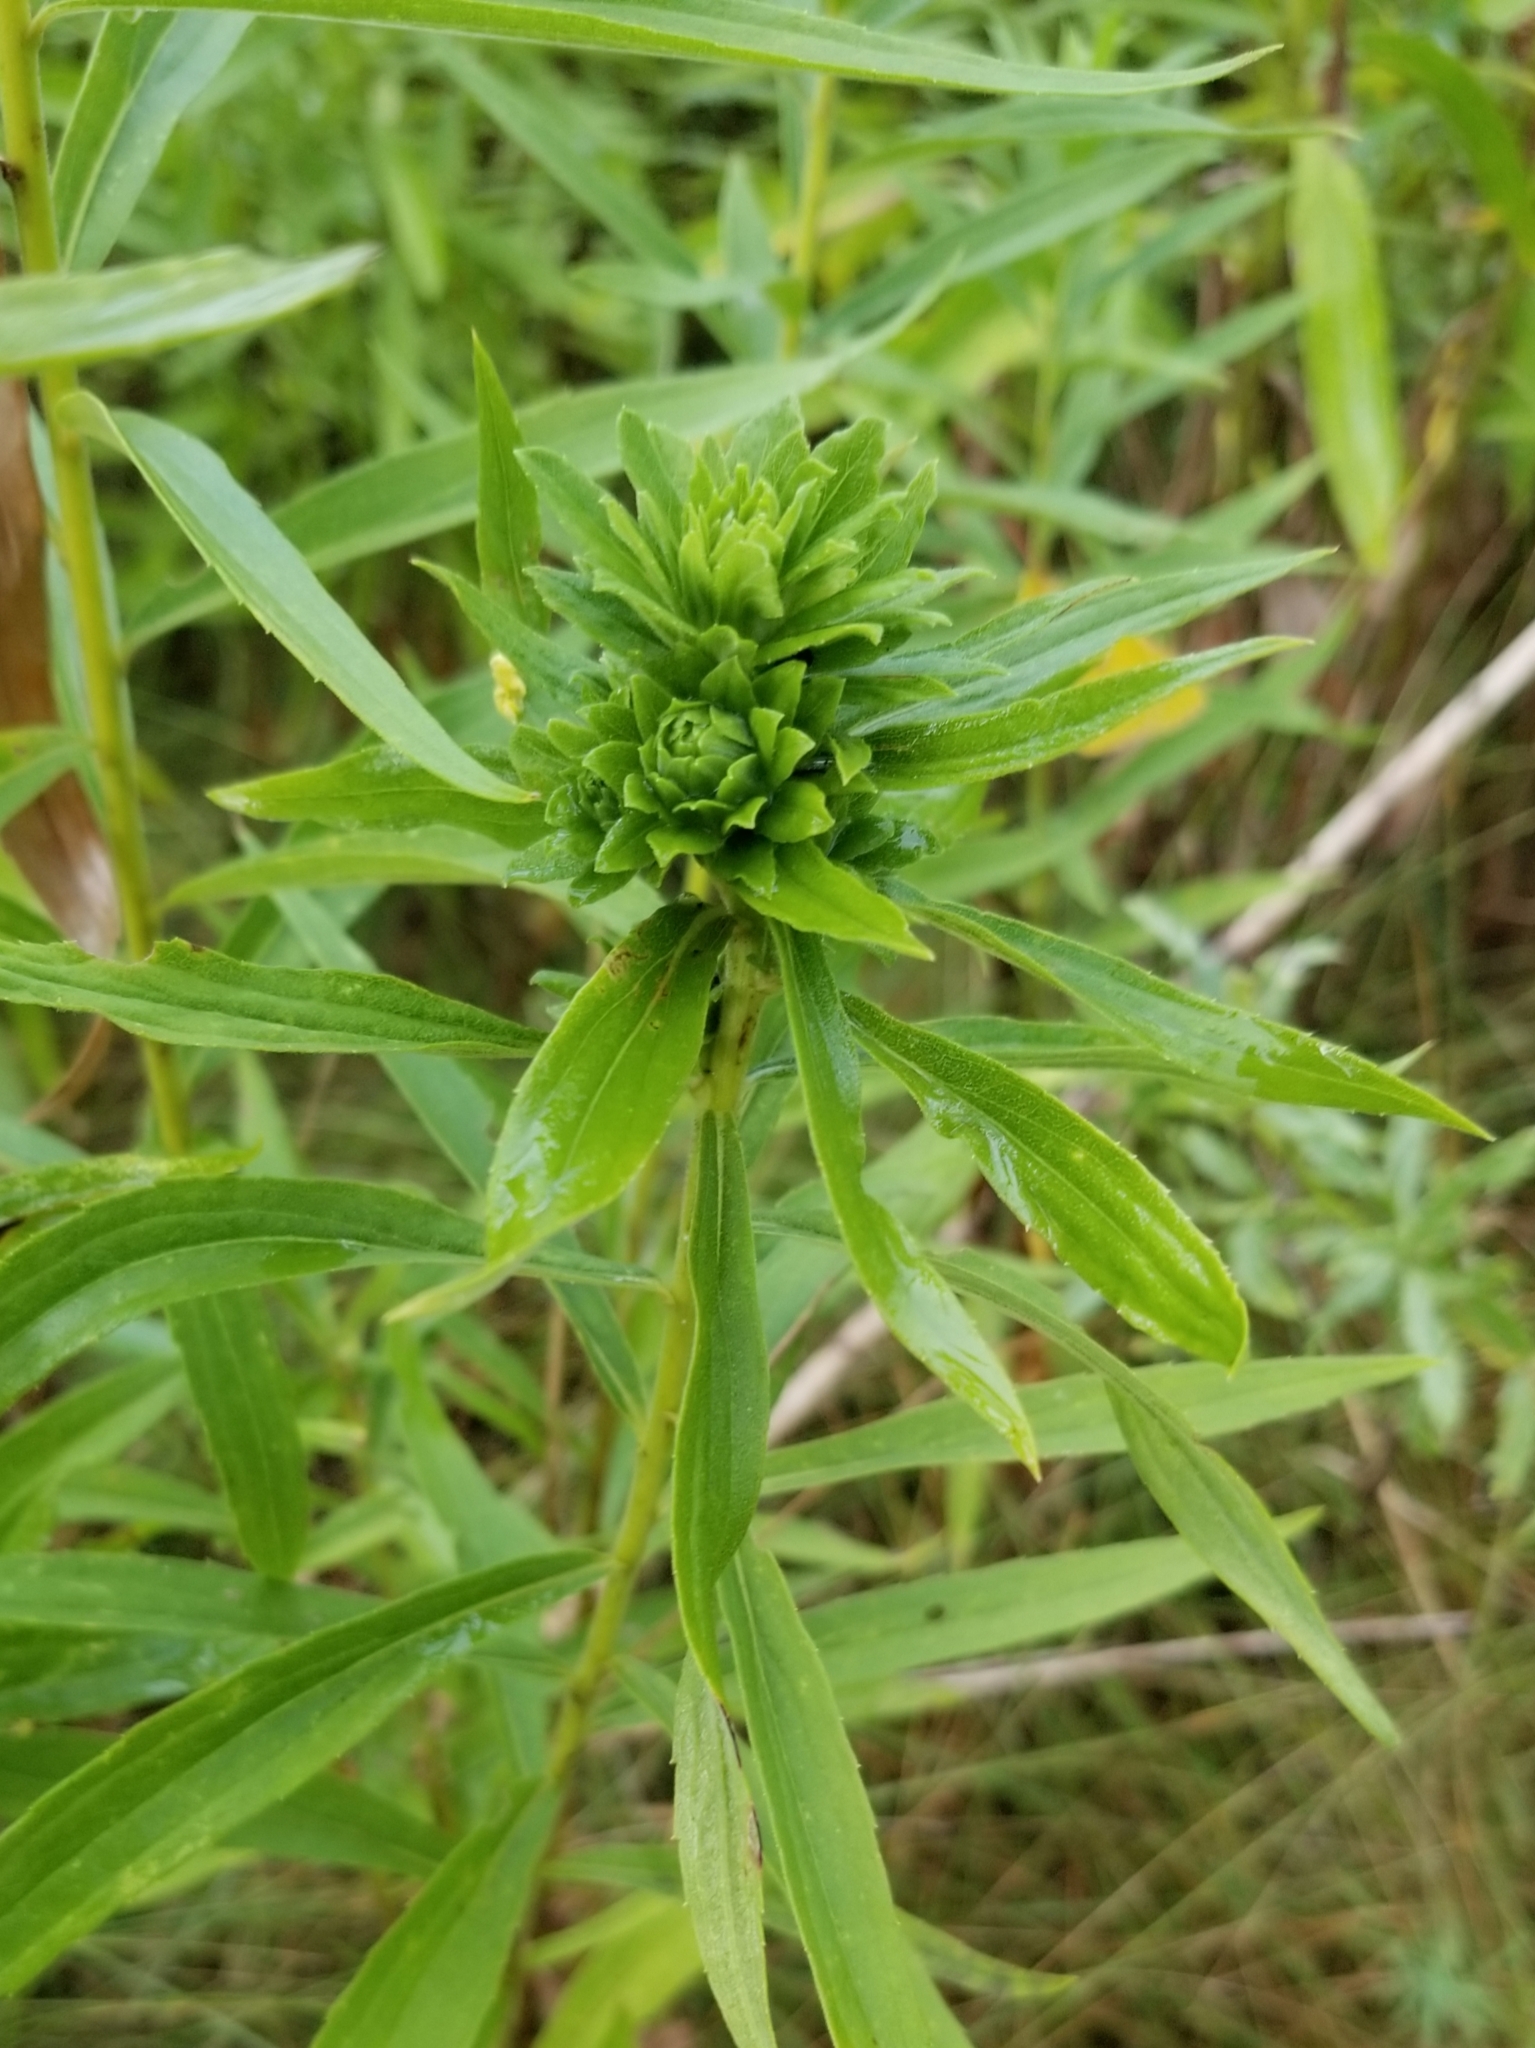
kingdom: Animalia
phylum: Arthropoda
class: Insecta
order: Diptera
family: Tephritidae
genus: Procecidochares
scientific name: Procecidochares atra
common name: Goldenrod brussels sprout gall fly
